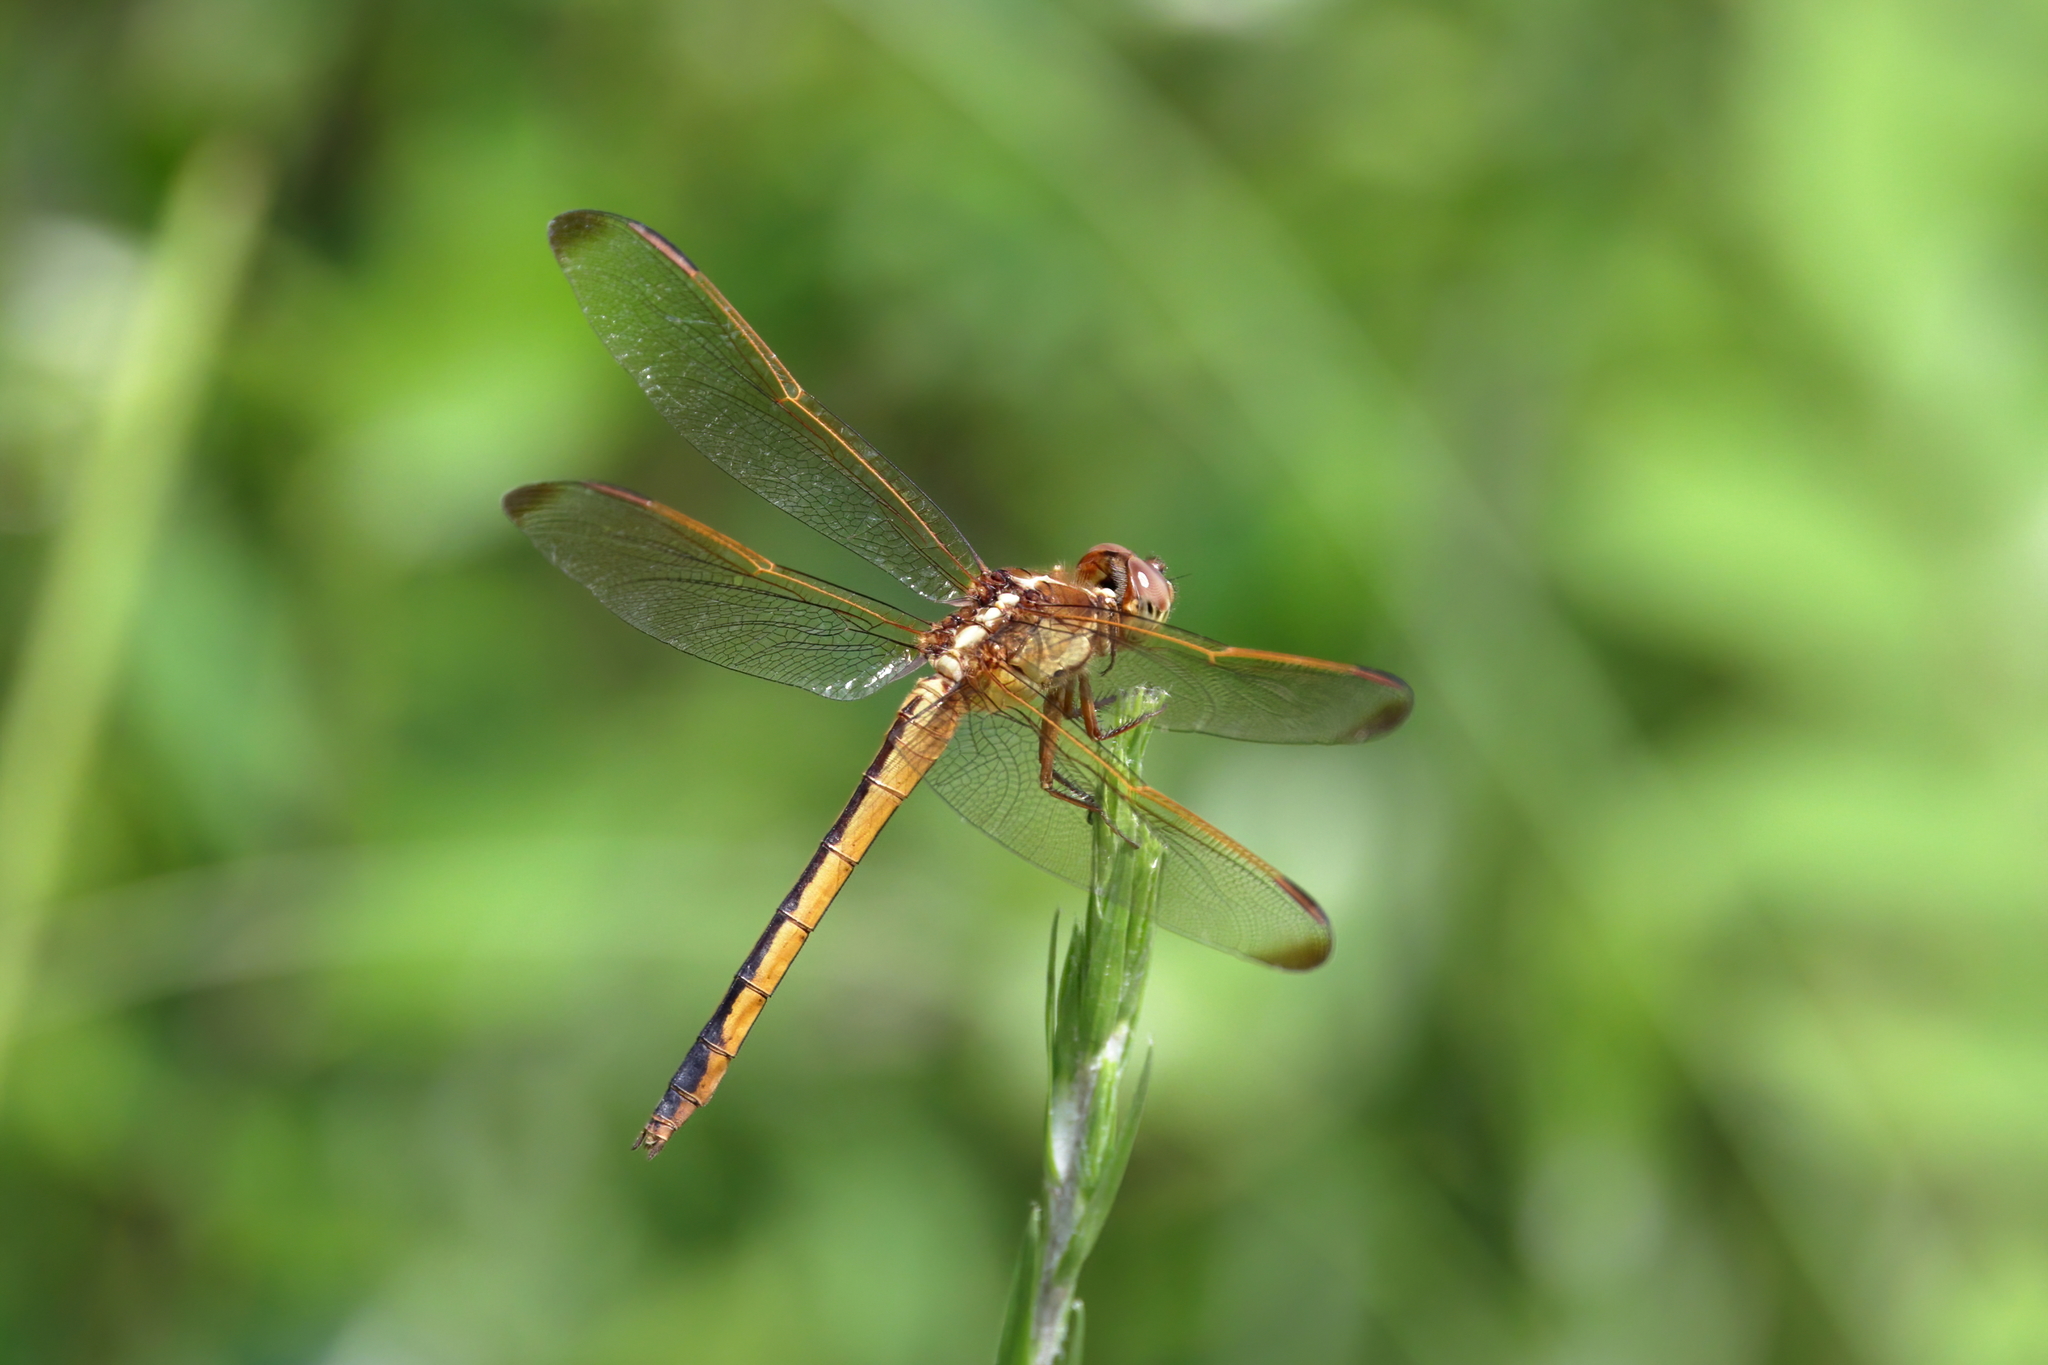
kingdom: Animalia
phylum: Arthropoda
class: Insecta
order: Odonata
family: Libellulidae
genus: Libellula
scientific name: Libellula needhami
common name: Needham's skimmer
